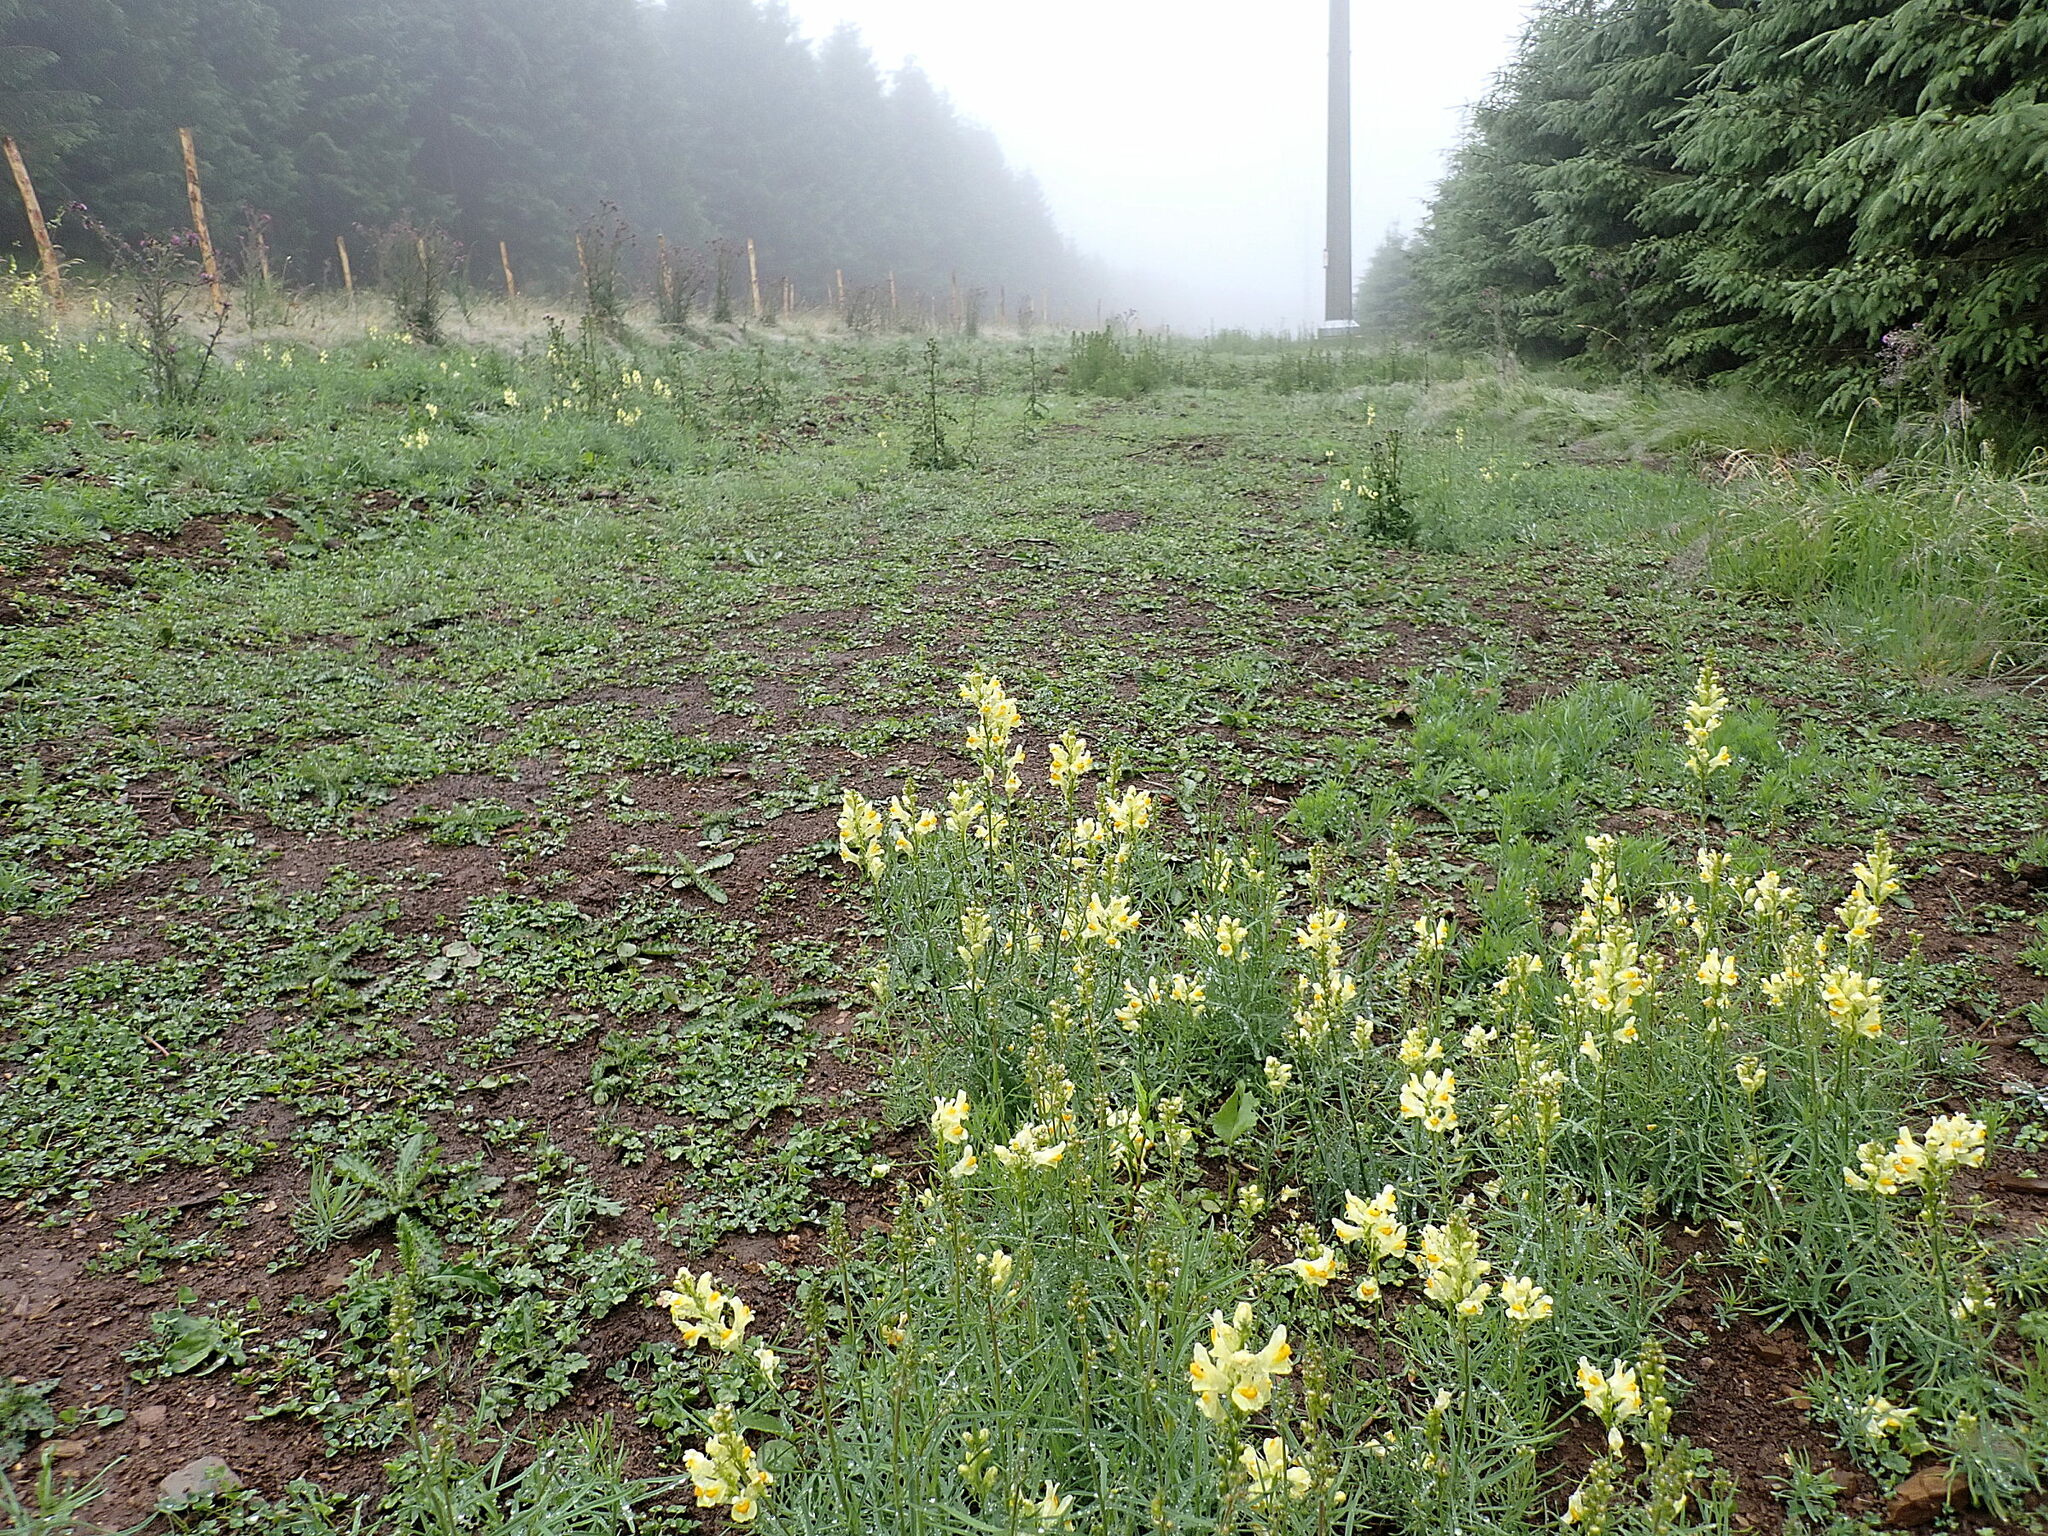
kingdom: Plantae
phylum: Tracheophyta
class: Magnoliopsida
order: Lamiales
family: Plantaginaceae
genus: Linaria
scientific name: Linaria vulgaris
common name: Butter and eggs
